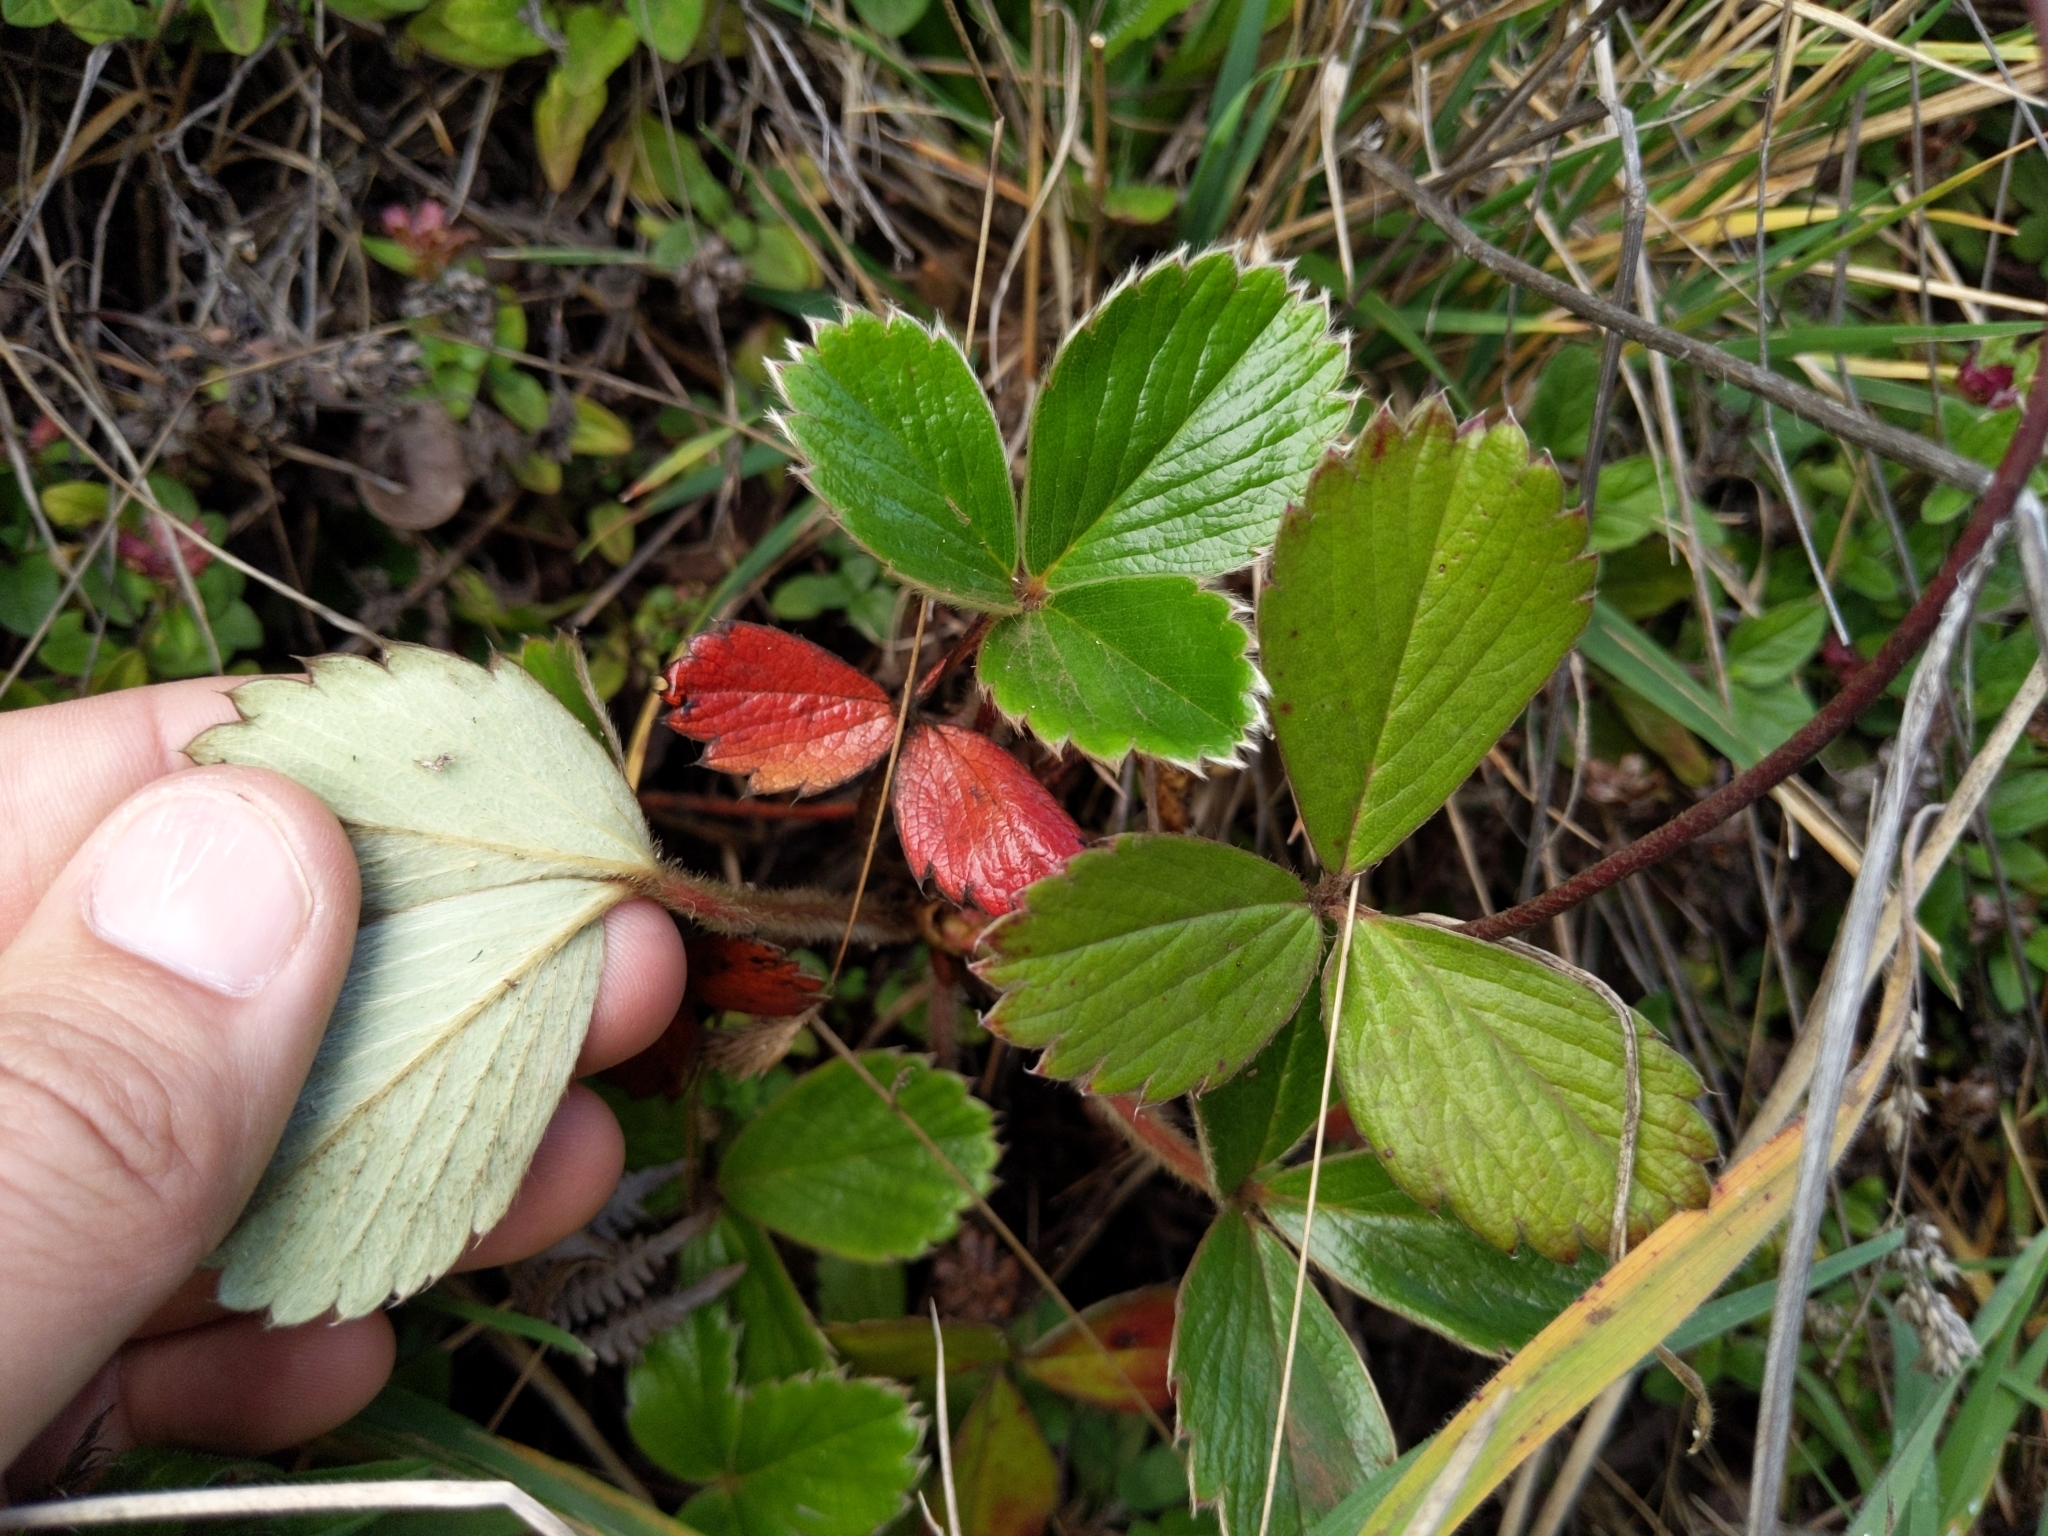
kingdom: Plantae
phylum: Tracheophyta
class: Magnoliopsida
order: Rosales
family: Rosaceae
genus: Fragaria
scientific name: Fragaria chiloensis
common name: Beach strawberry
